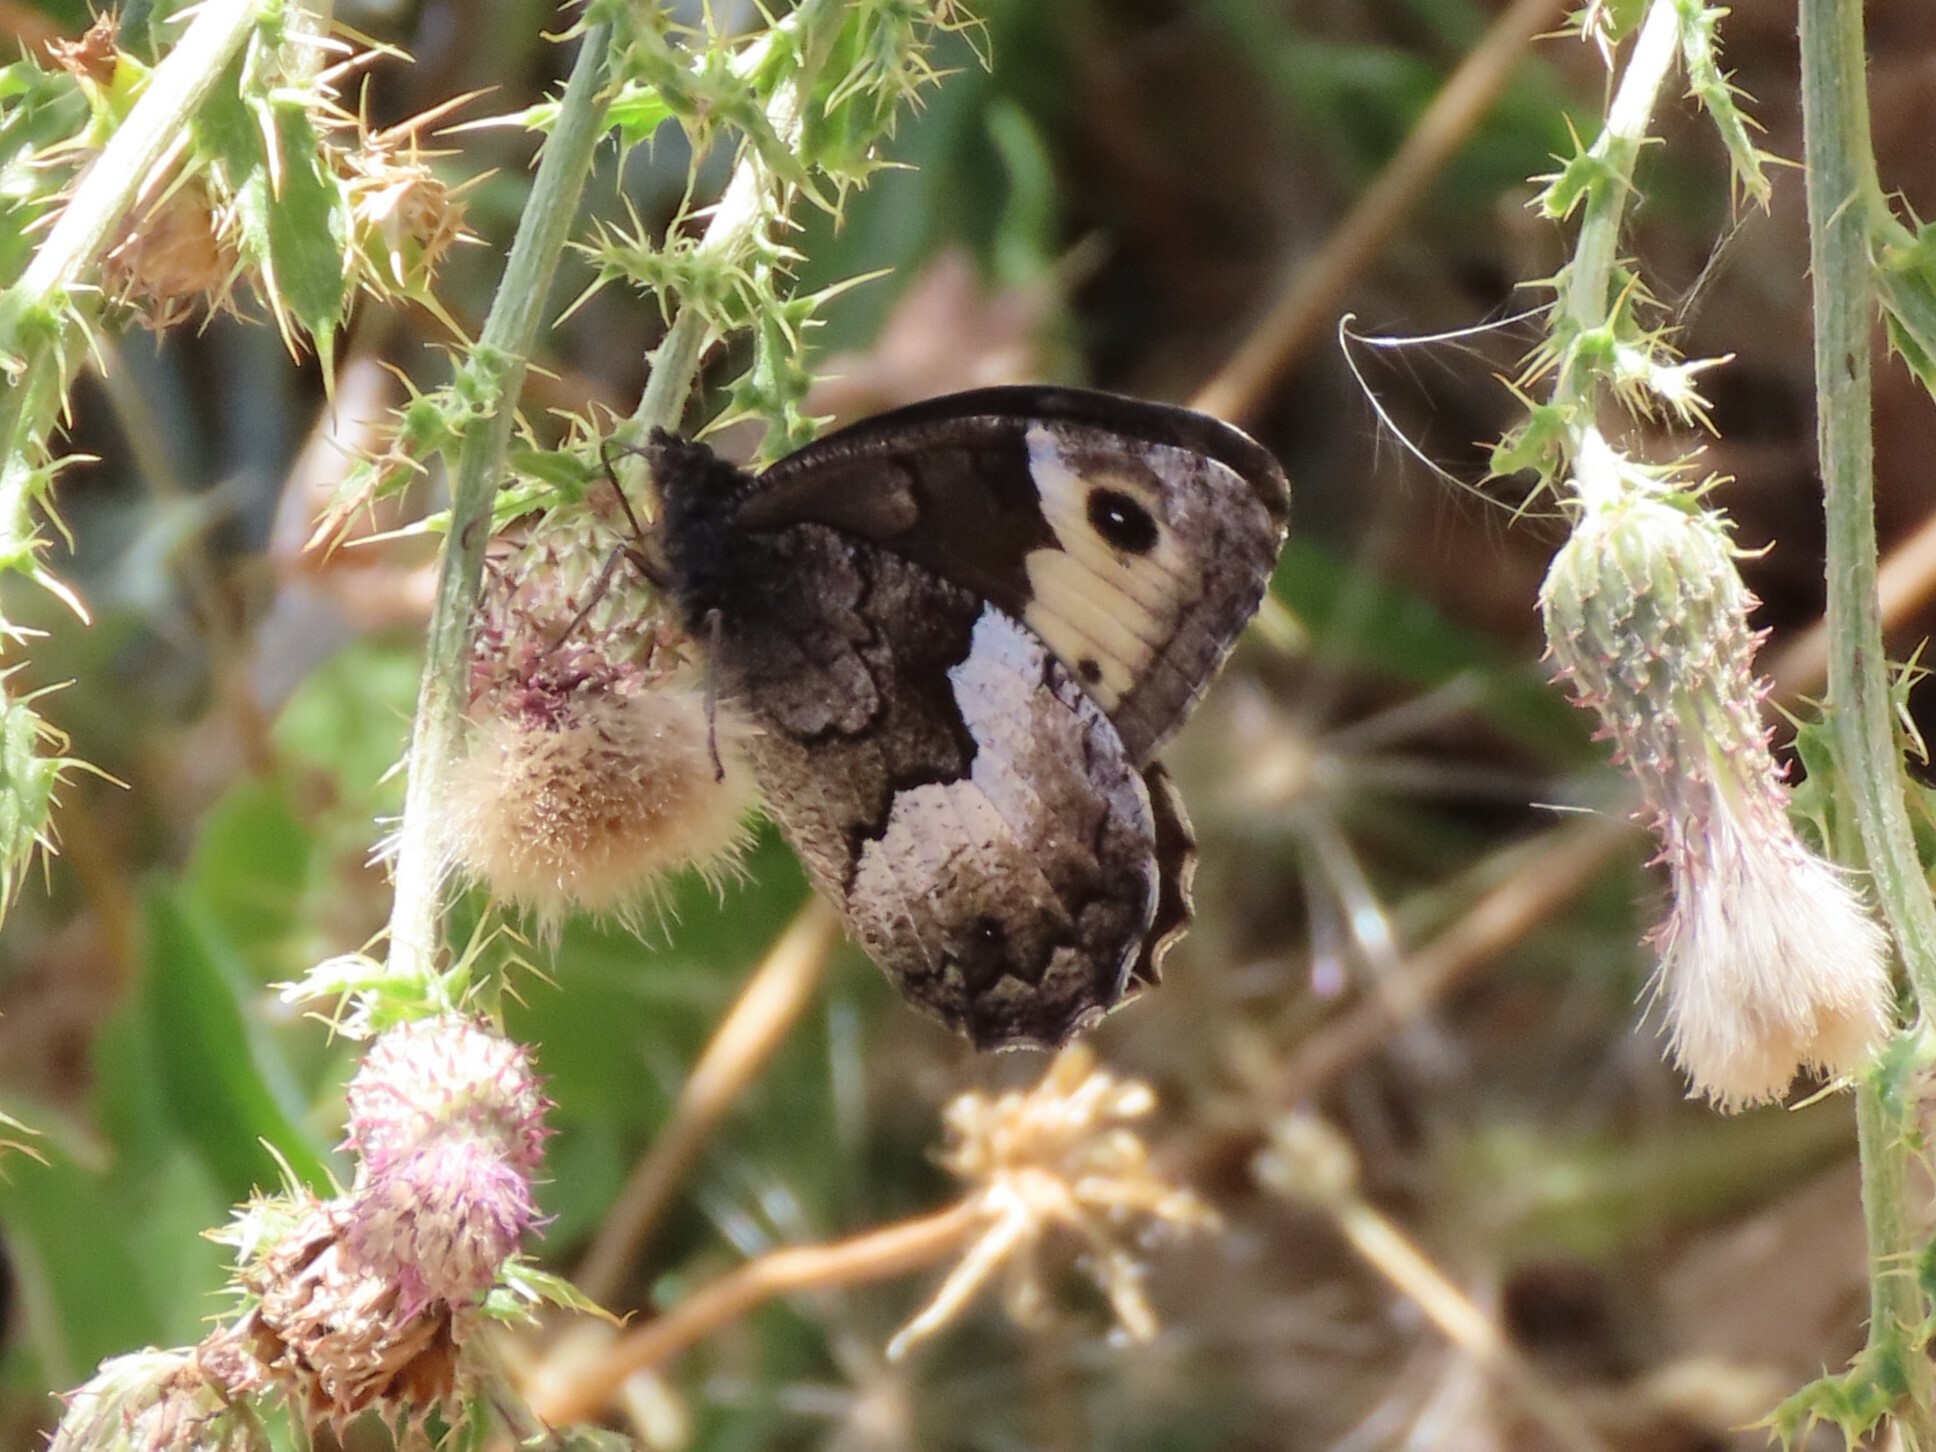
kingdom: Animalia
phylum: Arthropoda
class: Insecta
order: Lepidoptera
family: Nymphalidae
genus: Hipparchia
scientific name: Hipparchia hermione
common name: Rock grayling
